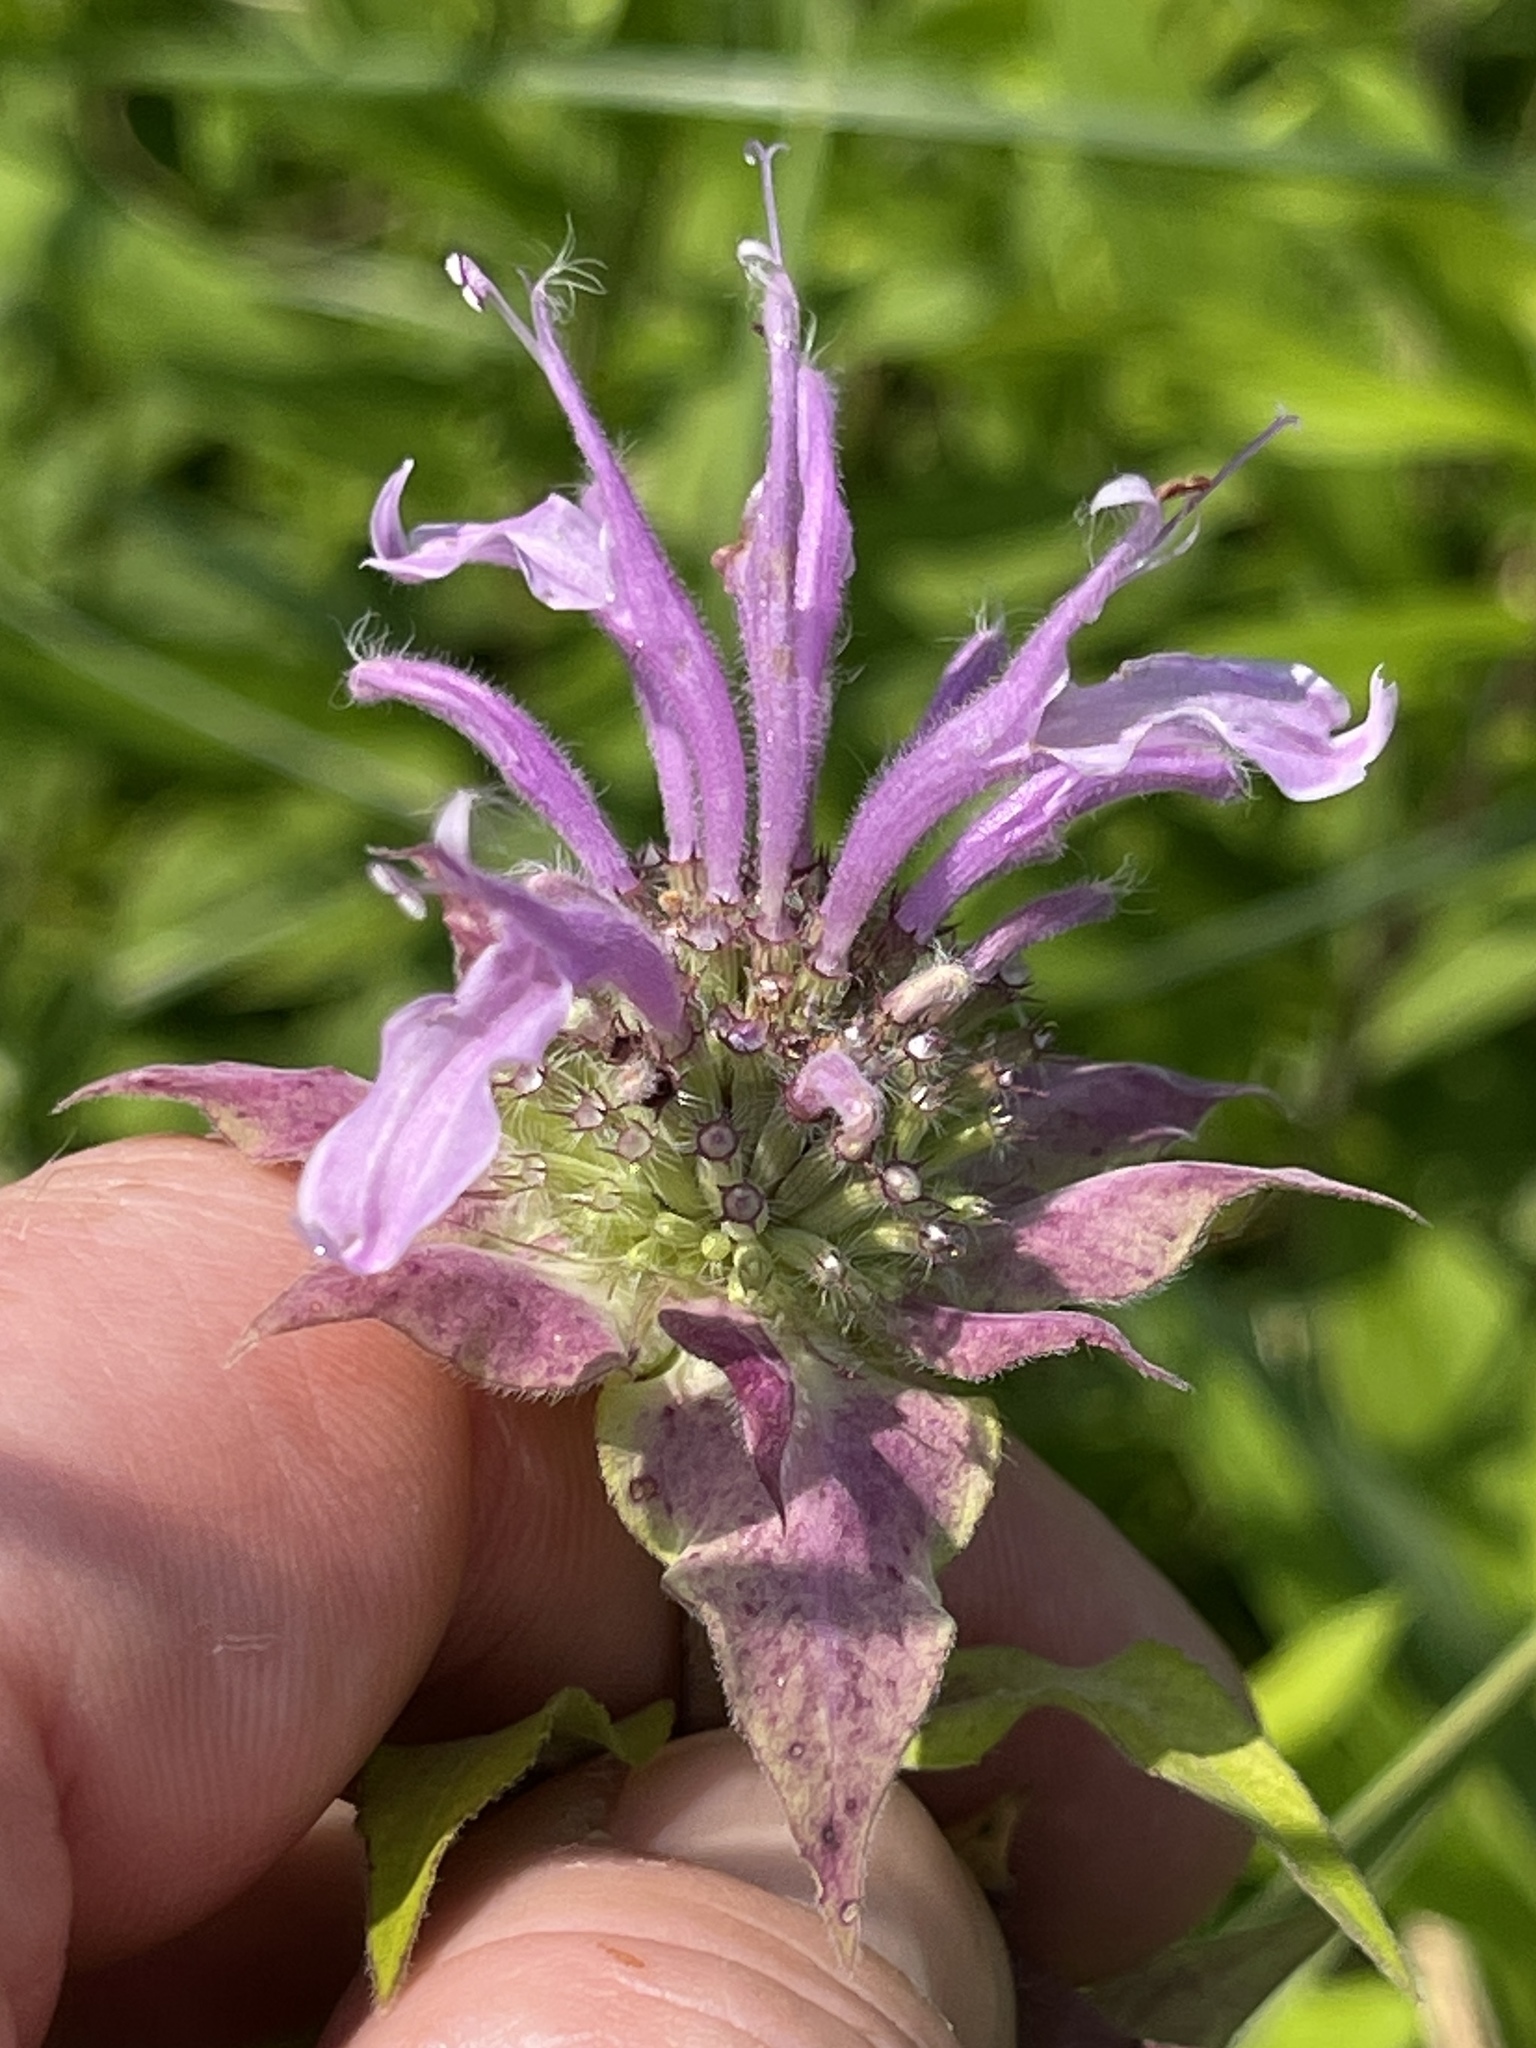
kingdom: Plantae
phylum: Tracheophyta
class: Magnoliopsida
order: Lamiales
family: Lamiaceae
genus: Monarda
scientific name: Monarda fistulosa
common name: Purple beebalm
